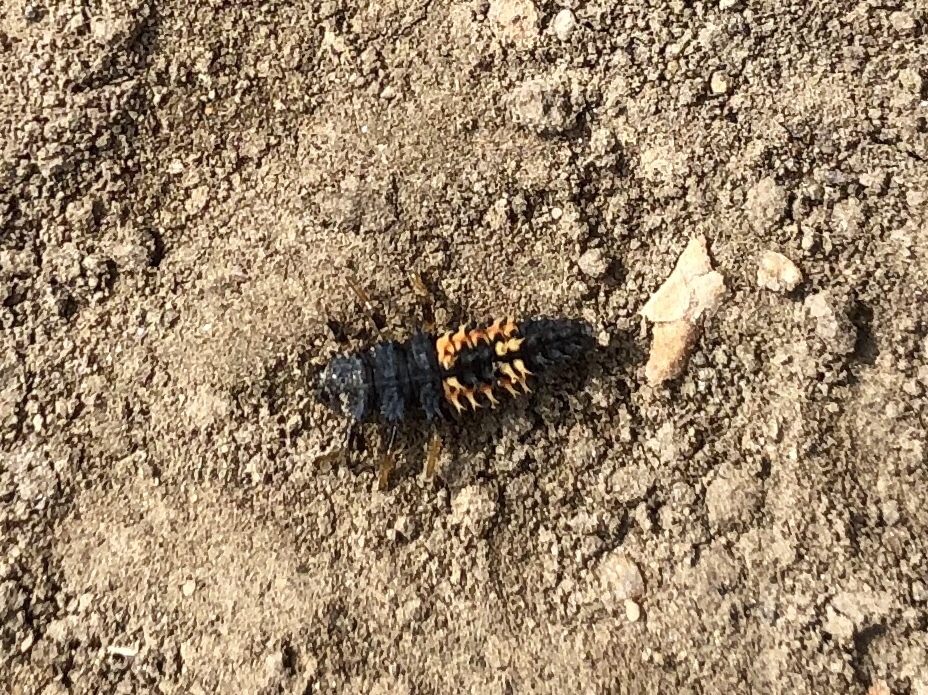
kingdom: Animalia
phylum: Arthropoda
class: Insecta
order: Coleoptera
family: Coccinellidae
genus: Harmonia
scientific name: Harmonia axyridis
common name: Harlequin ladybird
